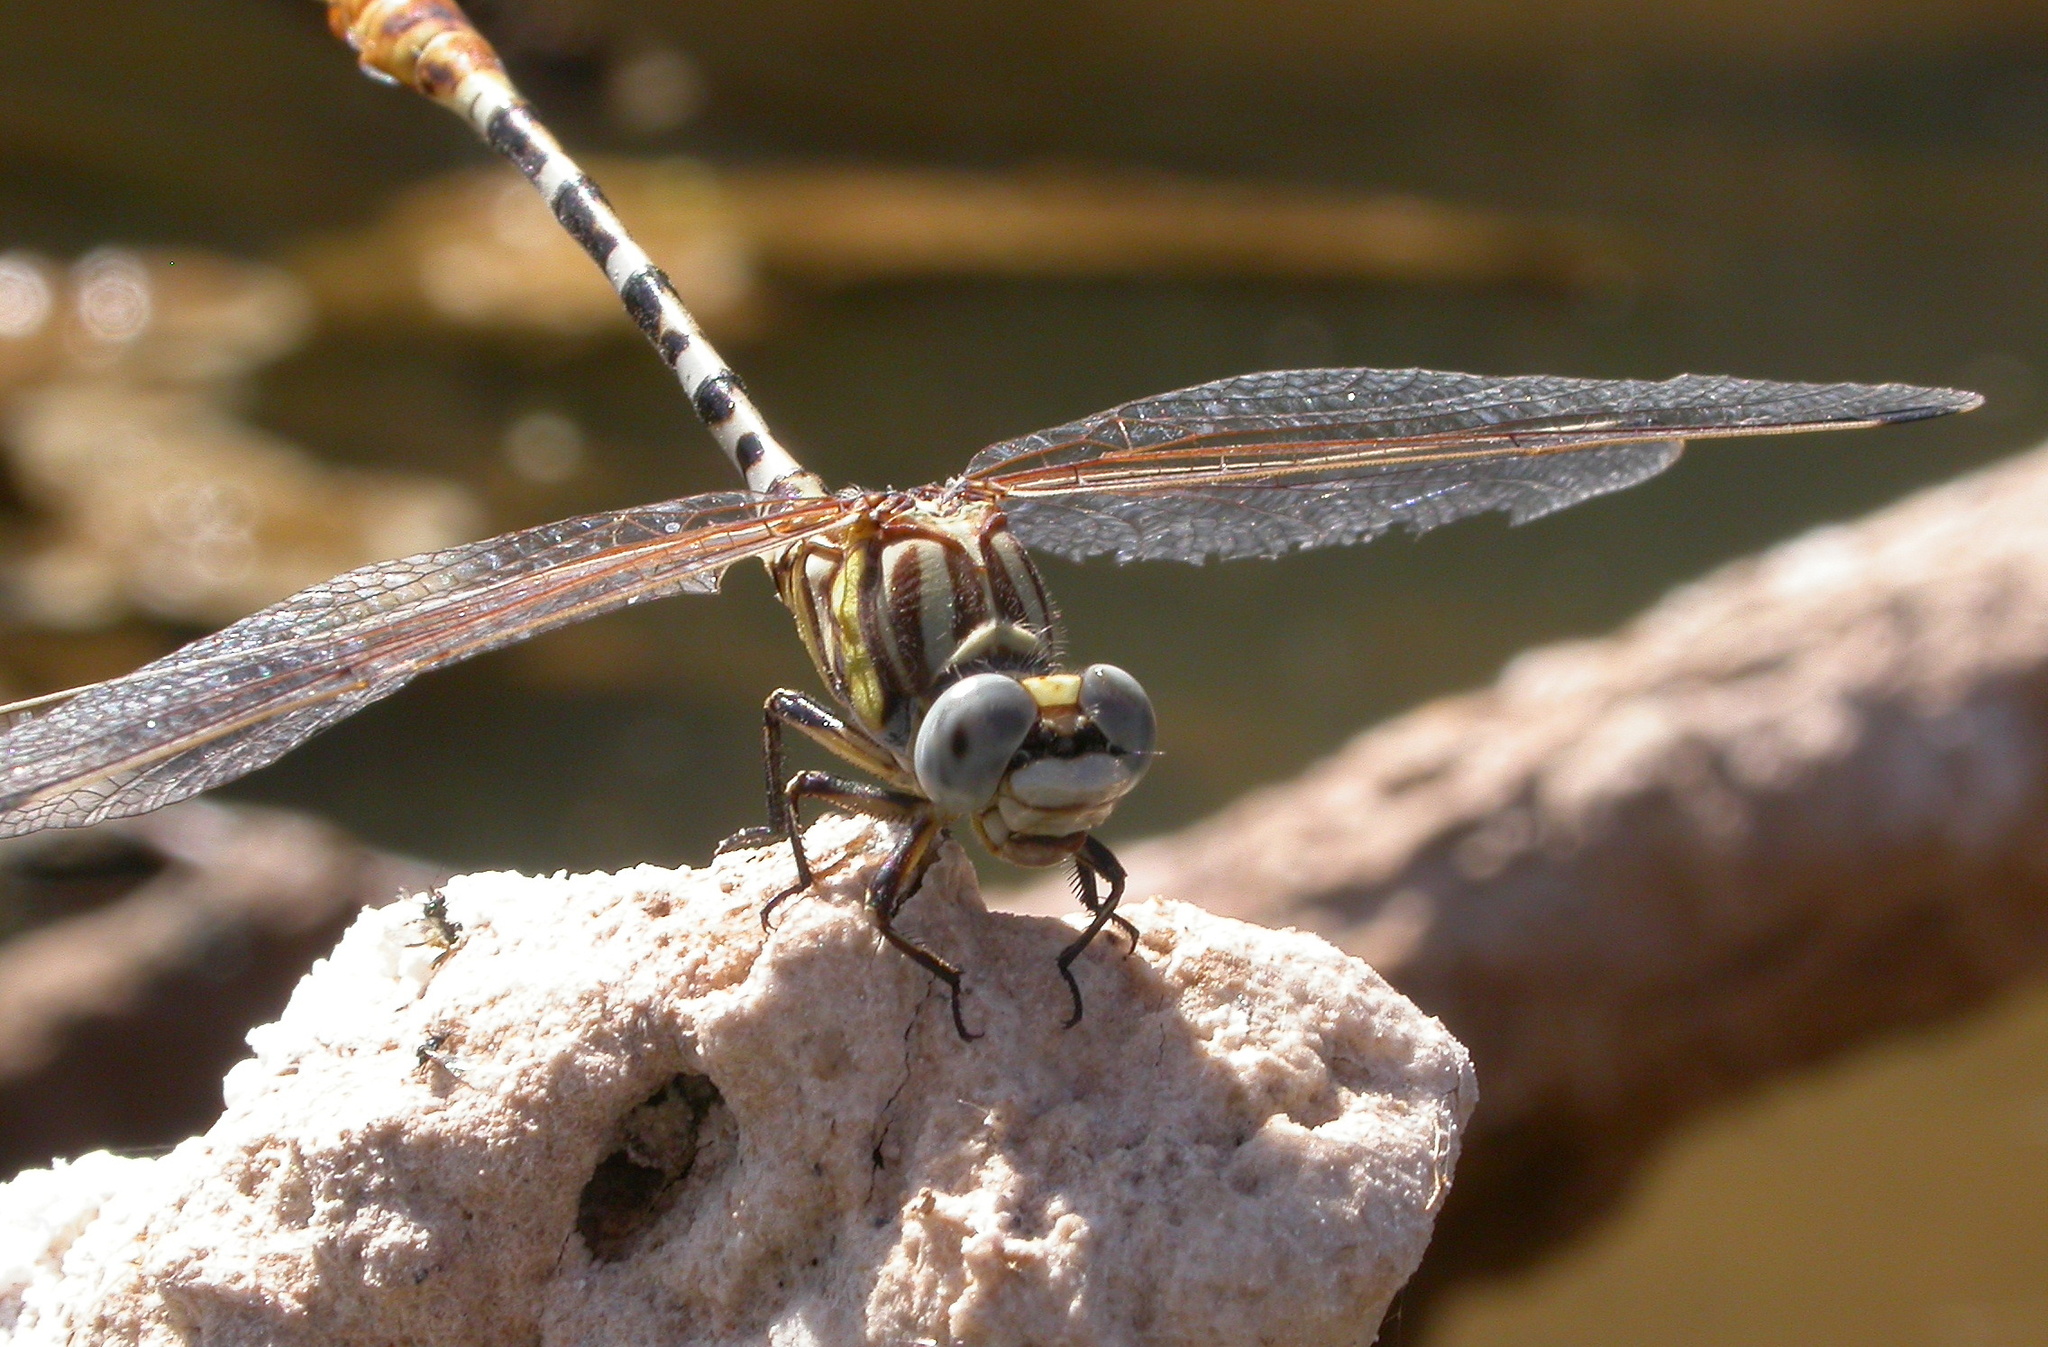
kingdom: Animalia
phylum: Arthropoda
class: Insecta
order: Odonata
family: Gomphidae
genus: Erpetogomphus
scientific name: Erpetogomphus compositus
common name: White-belted ringtail
